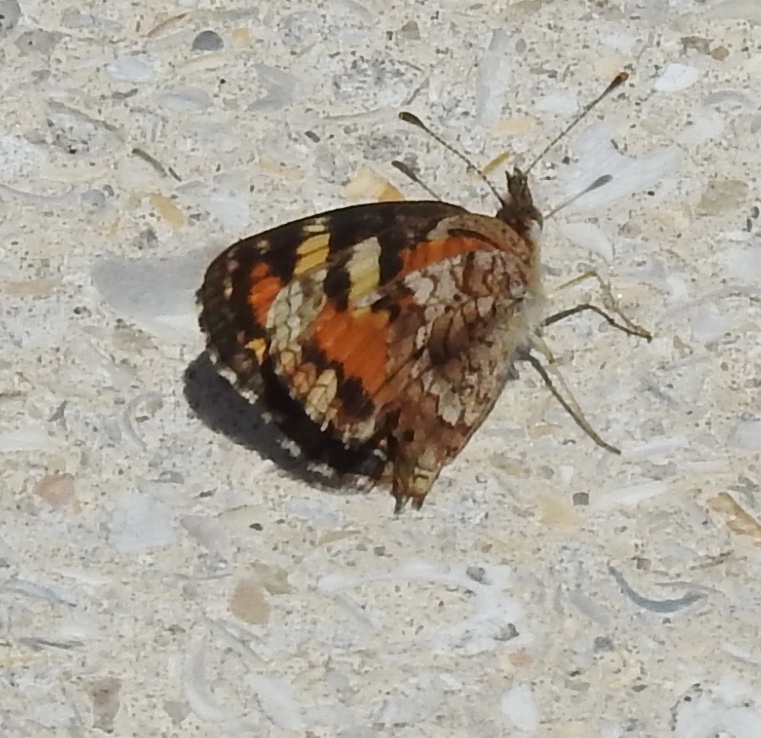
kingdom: Animalia
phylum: Arthropoda
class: Insecta
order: Lepidoptera
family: Nymphalidae
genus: Phyciodes
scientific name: Phyciodes phaon
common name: Phaon crescent
